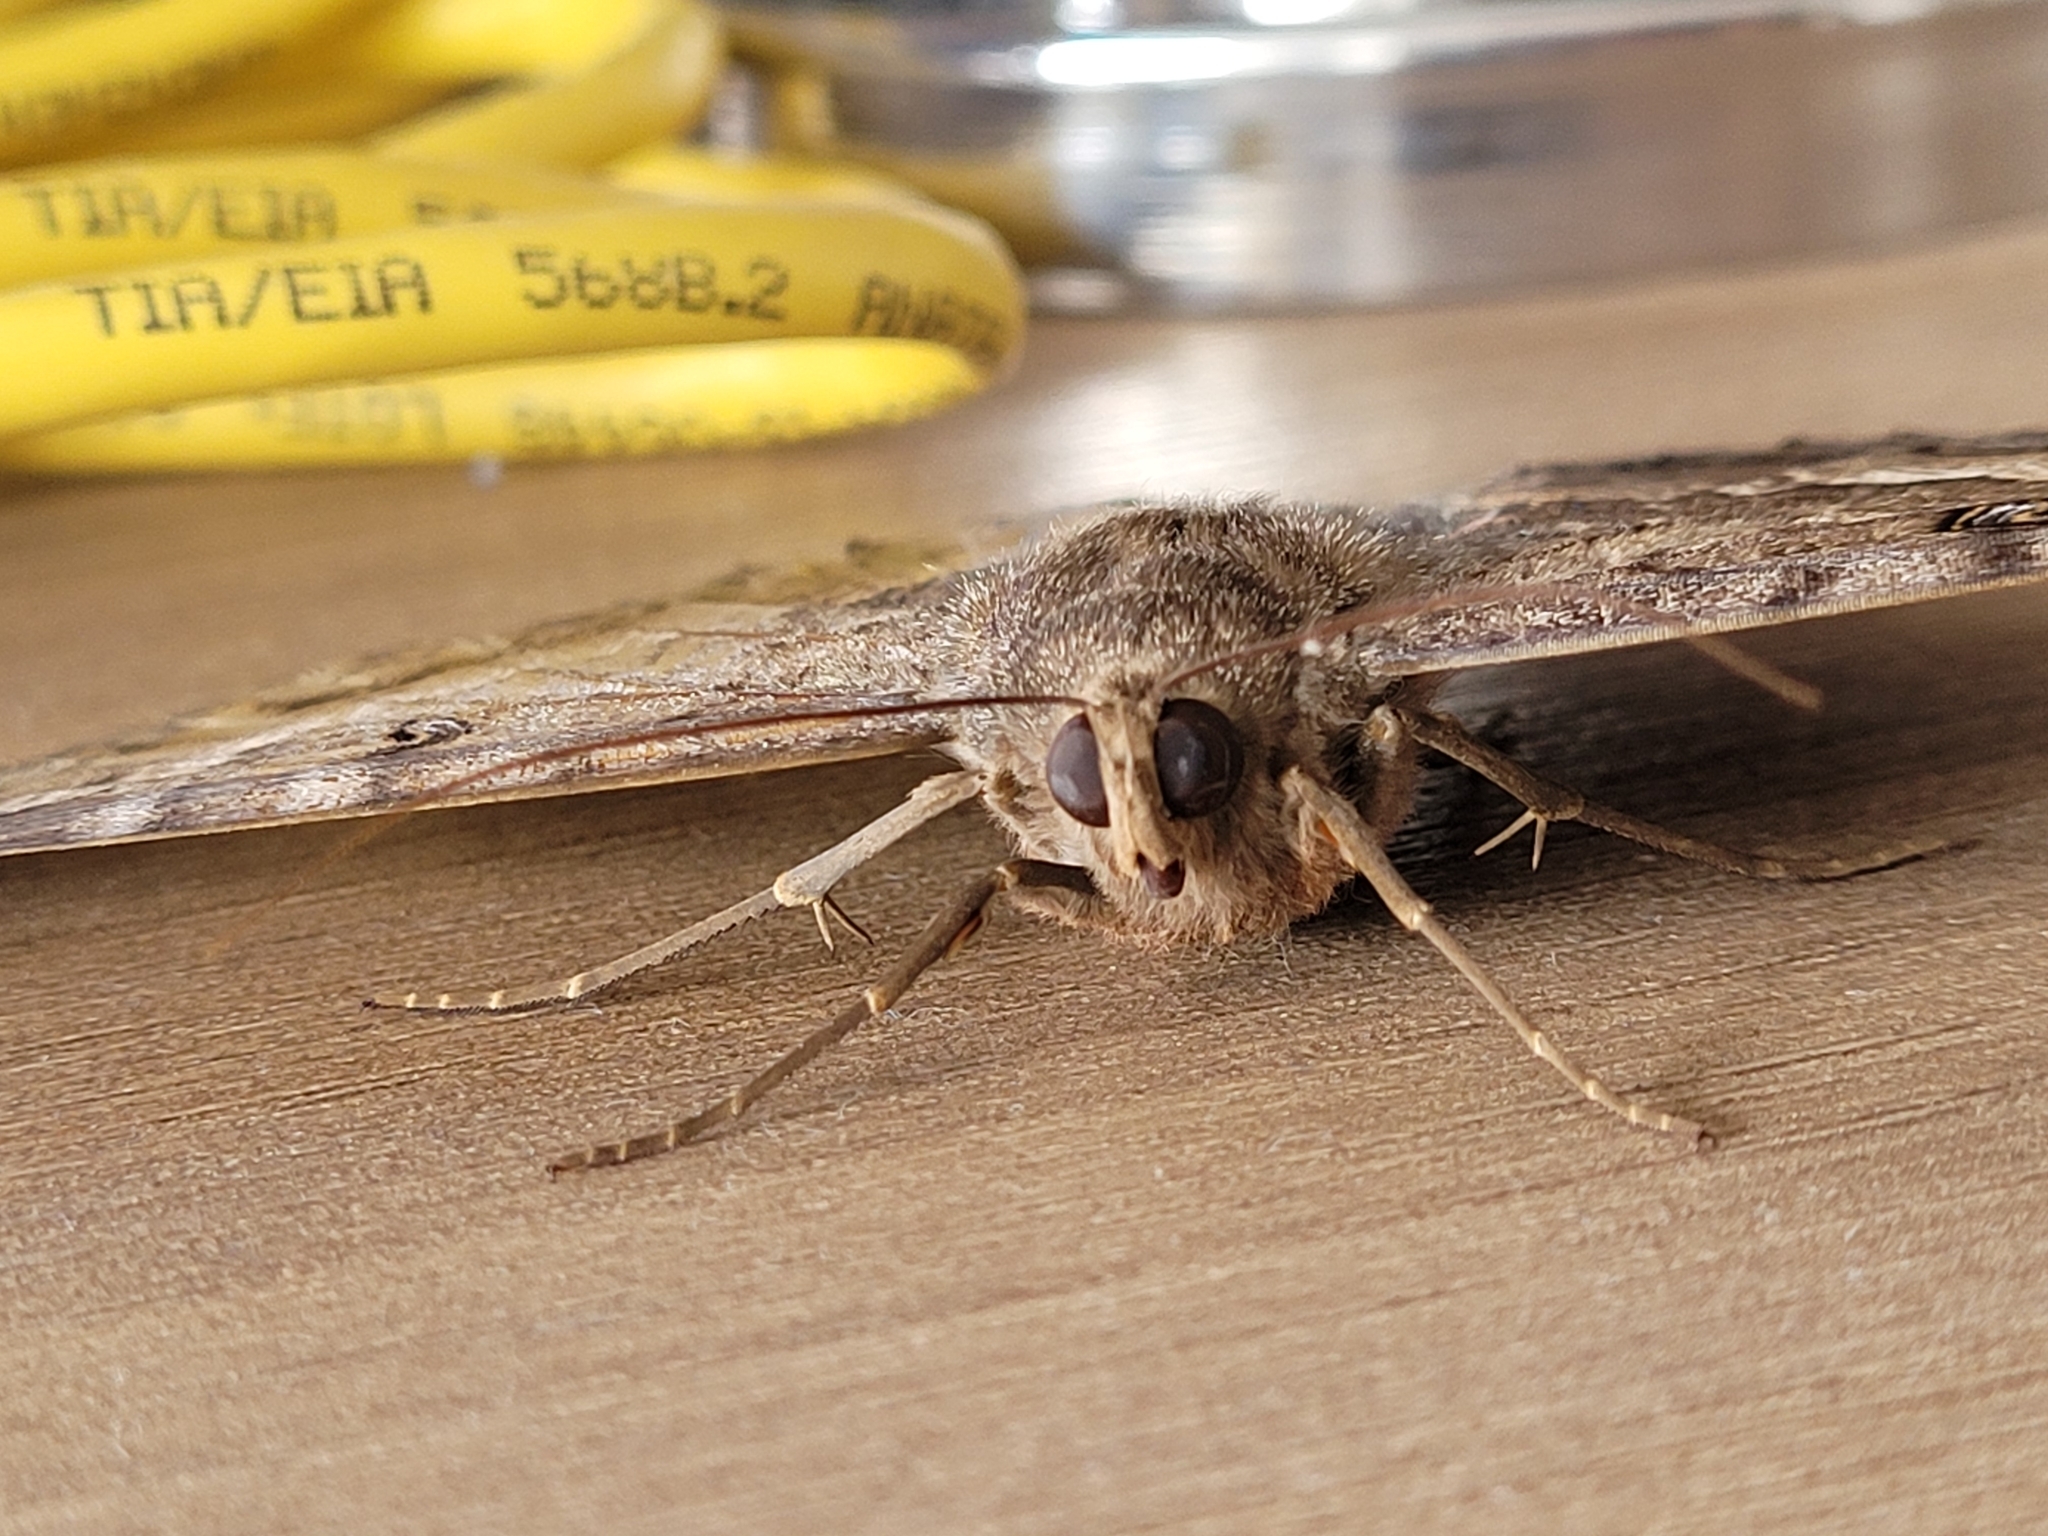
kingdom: Animalia
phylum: Arthropoda
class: Insecta
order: Lepidoptera
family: Erebidae
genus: Ascalapha
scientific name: Ascalapha odorata
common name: Black witch
